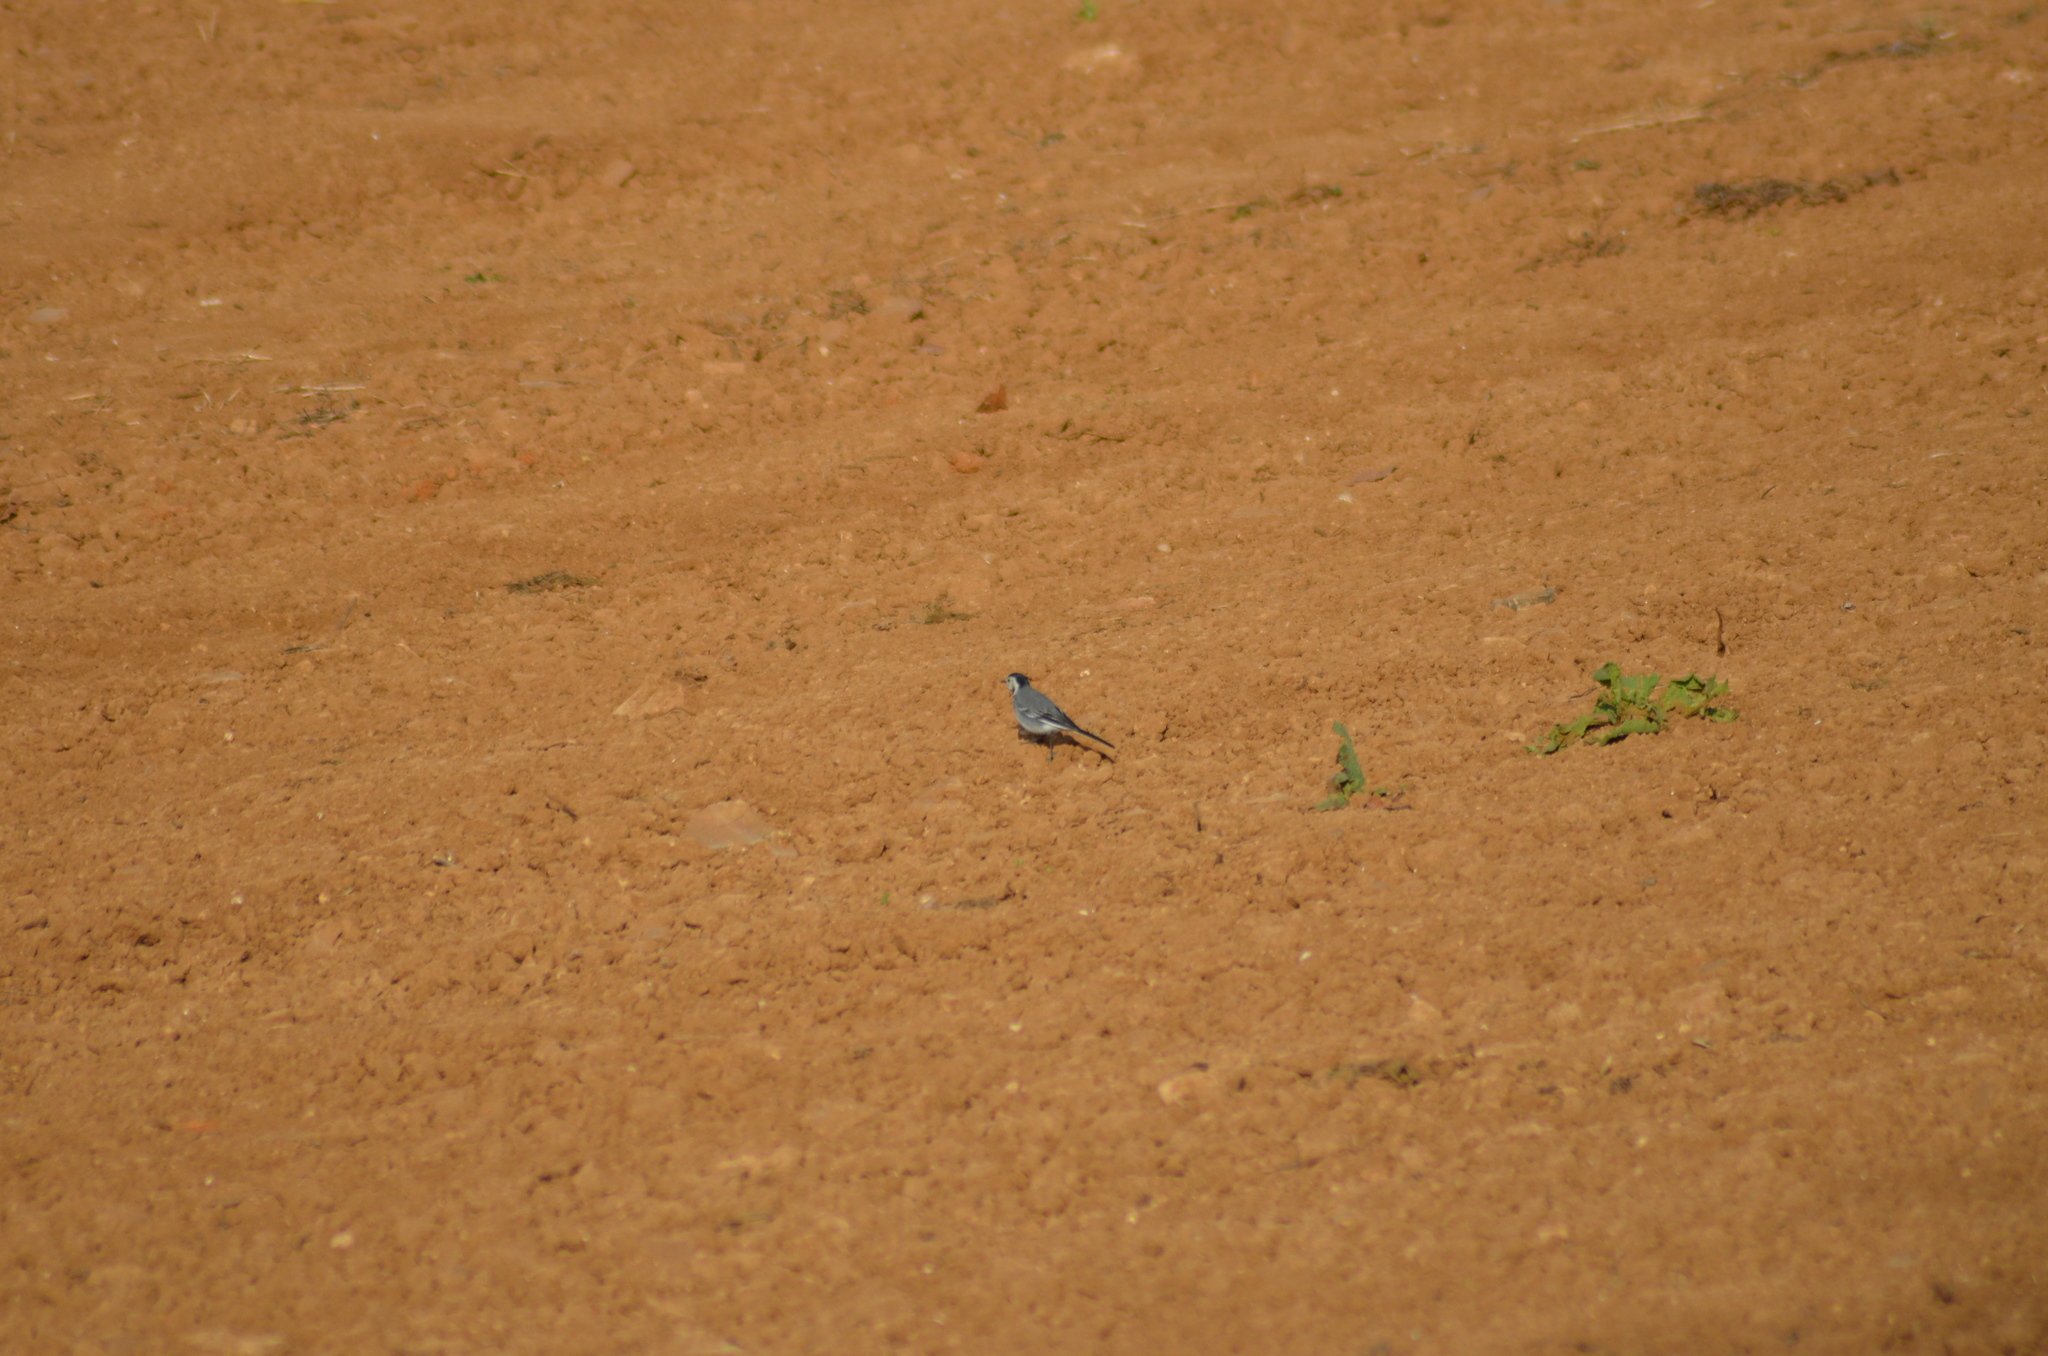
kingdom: Animalia
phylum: Chordata
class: Aves
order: Passeriformes
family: Motacillidae
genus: Motacilla
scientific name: Motacilla alba
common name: White wagtail
